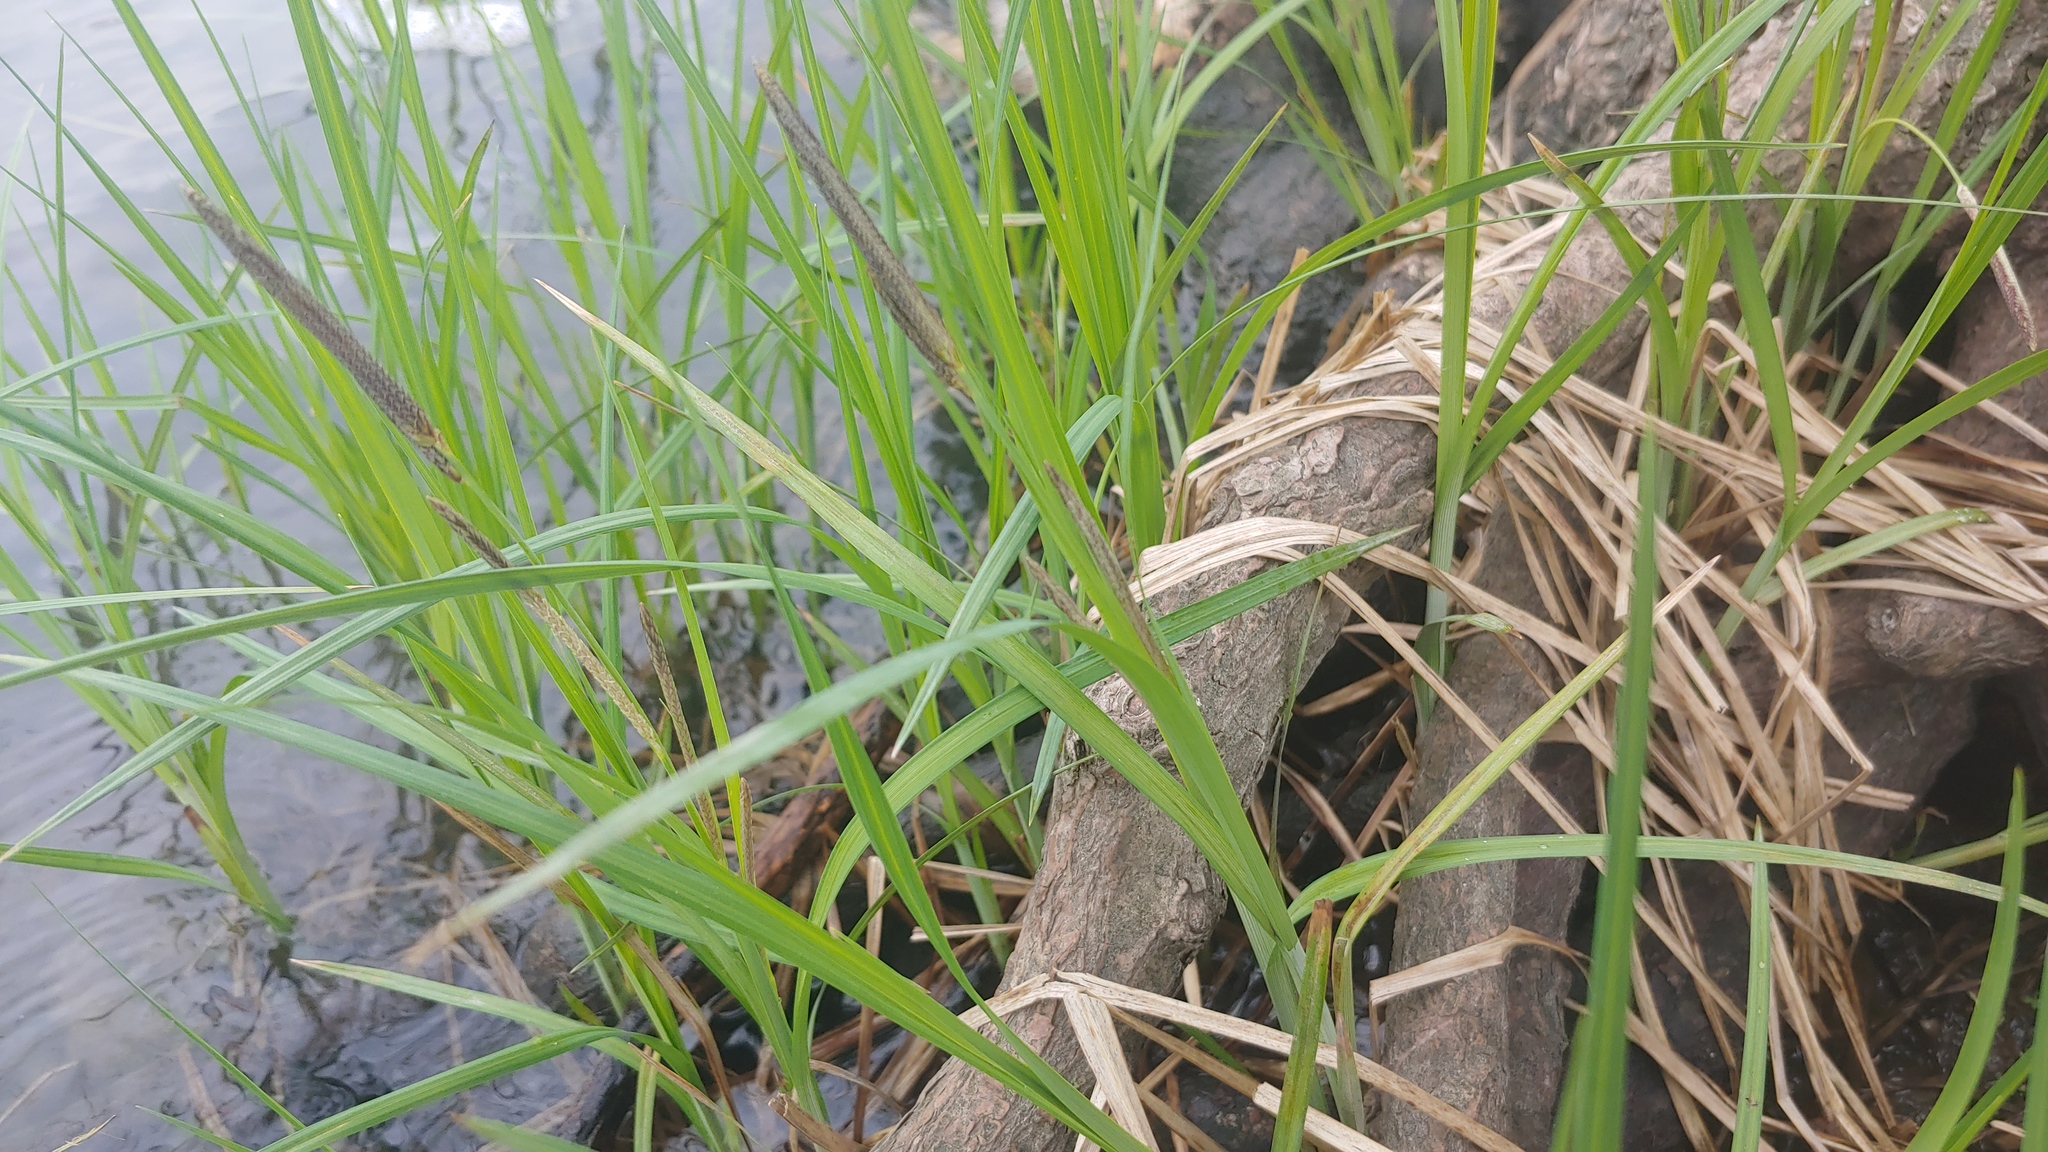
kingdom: Plantae
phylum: Tracheophyta
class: Liliopsida
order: Poales
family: Cyperaceae
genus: Carex
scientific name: Carex emoryi
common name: Emory's sedge
